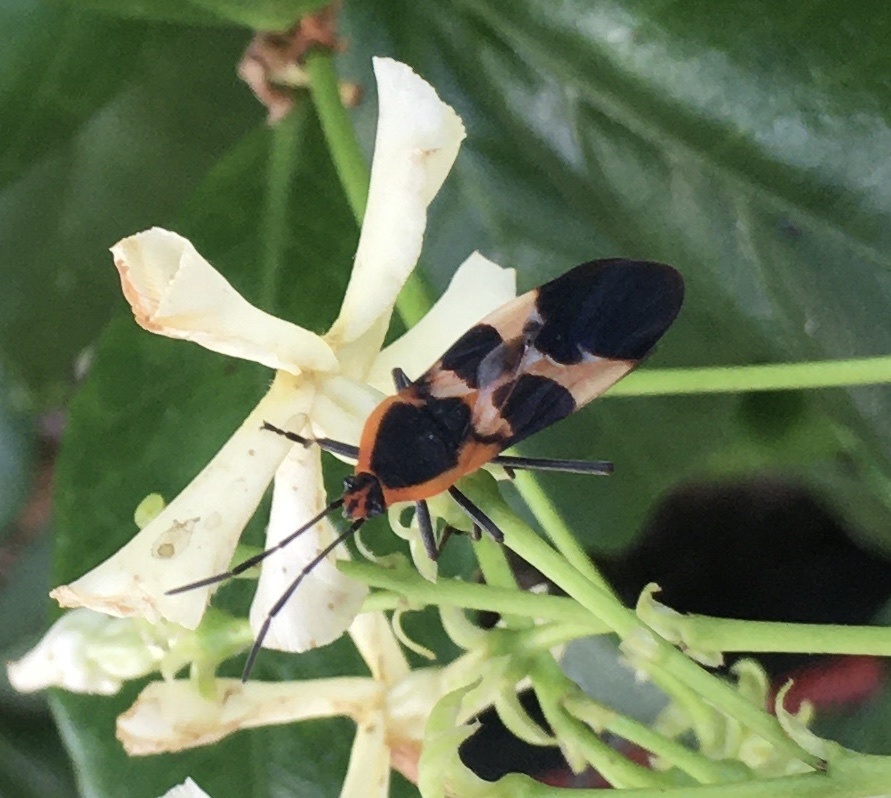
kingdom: Animalia
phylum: Arthropoda
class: Insecta
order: Hemiptera
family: Lygaeidae
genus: Oncopeltus
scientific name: Oncopeltus fasciatus
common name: Large milkweed bug
